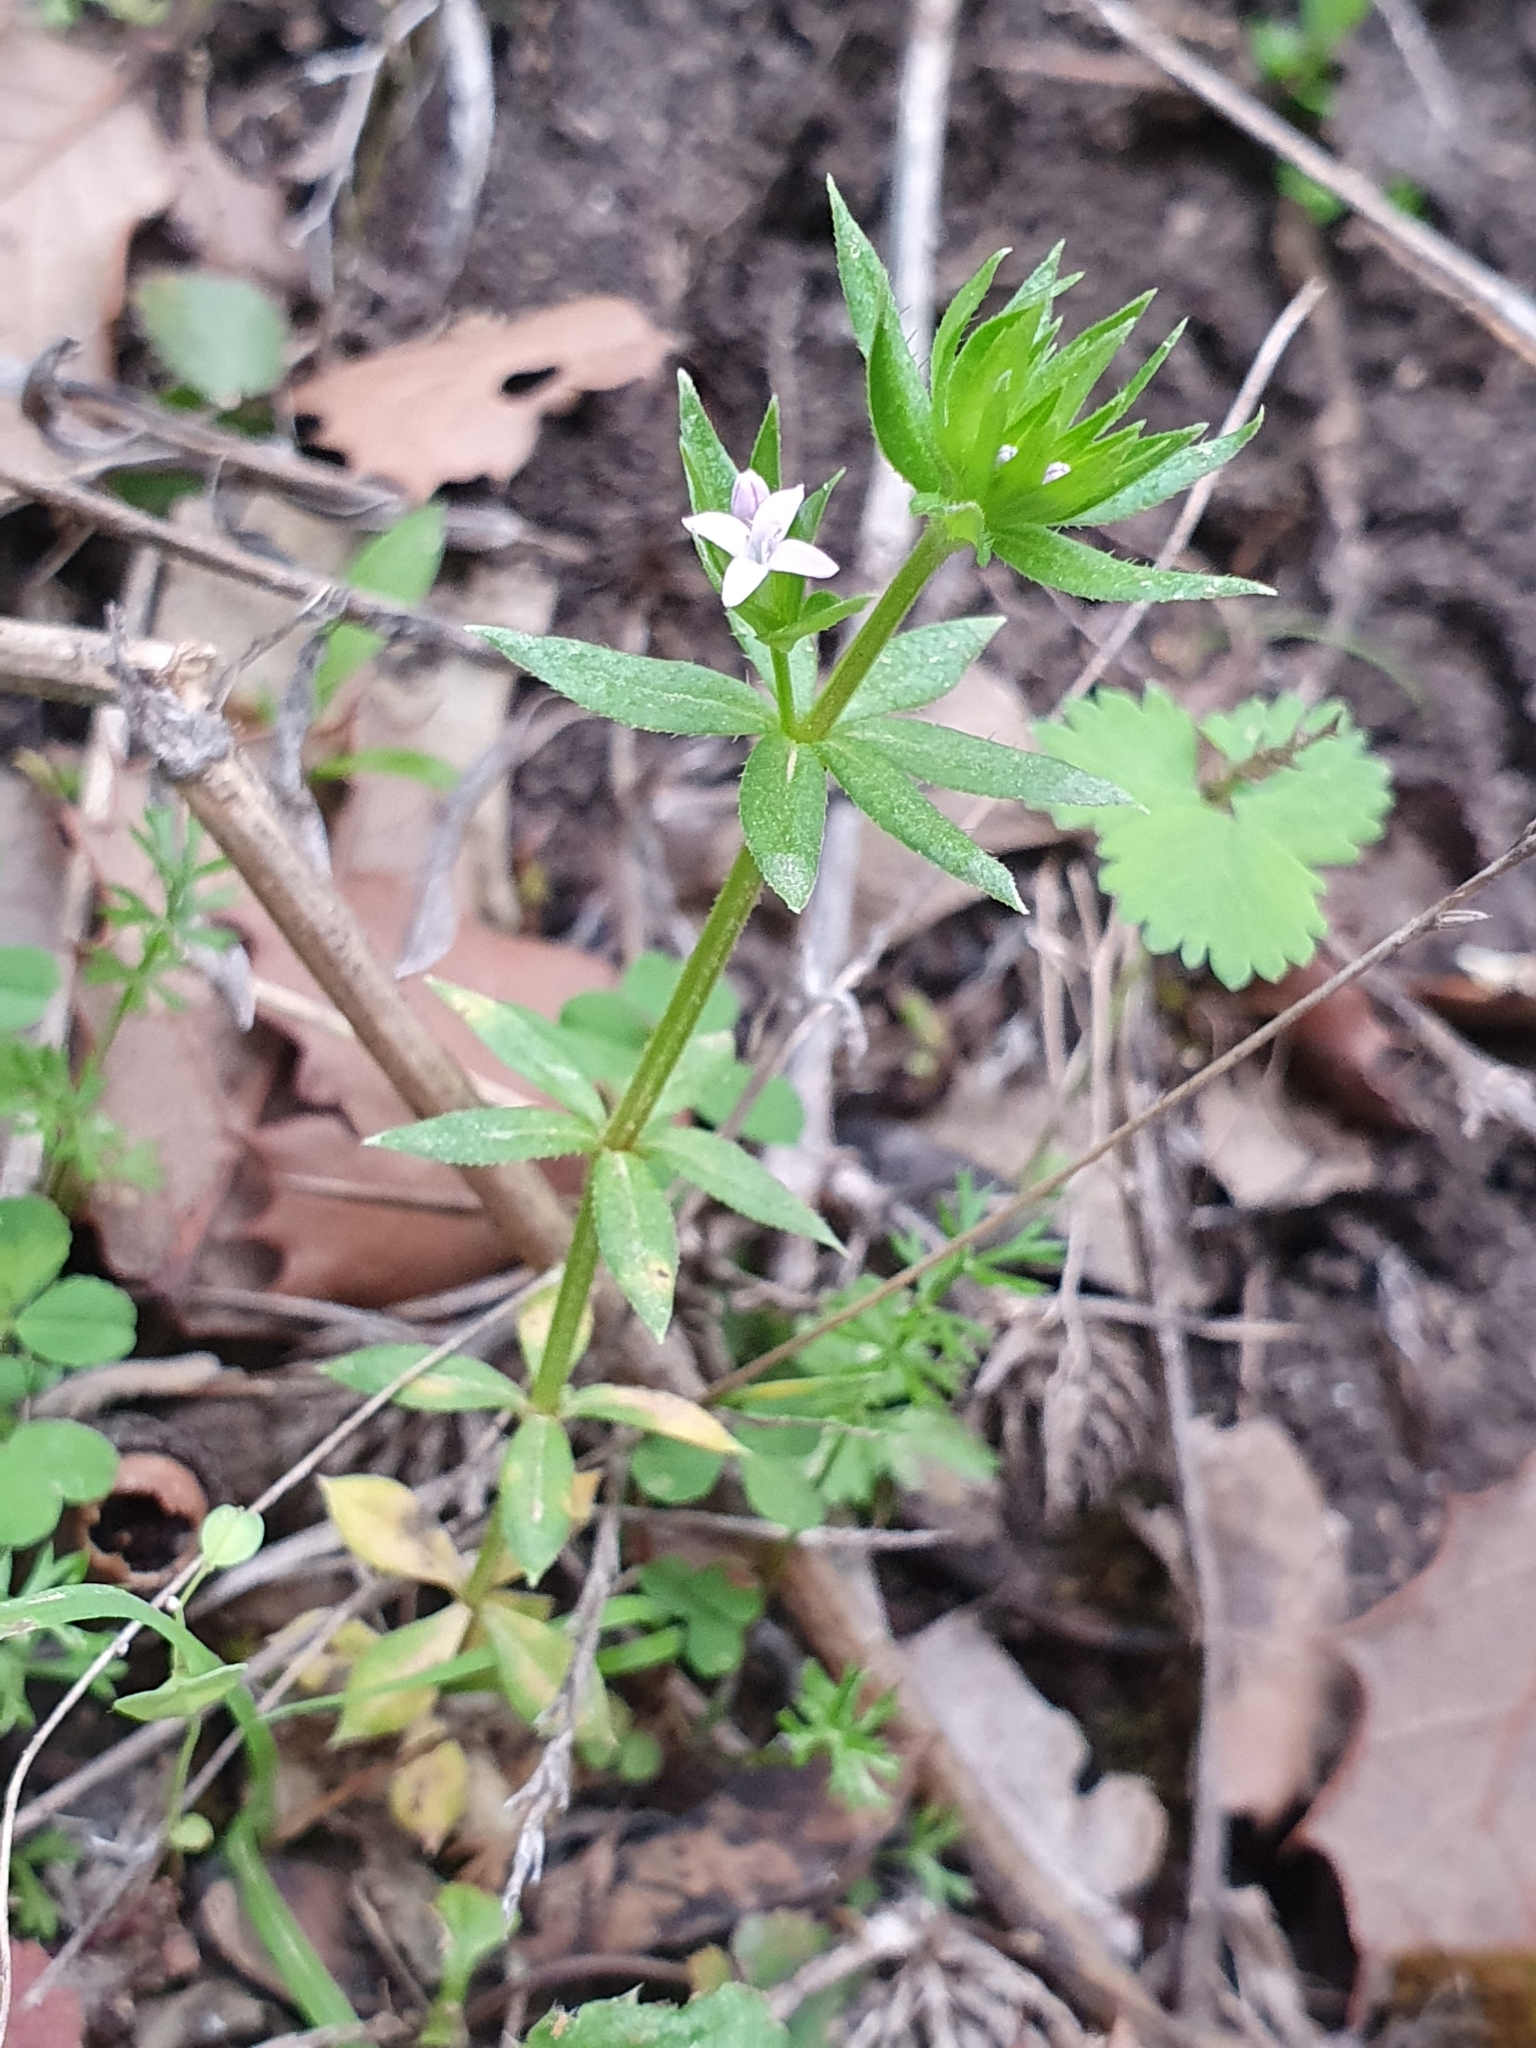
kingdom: Plantae
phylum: Tracheophyta
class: Magnoliopsida
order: Gentianales
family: Rubiaceae
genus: Sherardia
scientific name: Sherardia arvensis
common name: Field madder
